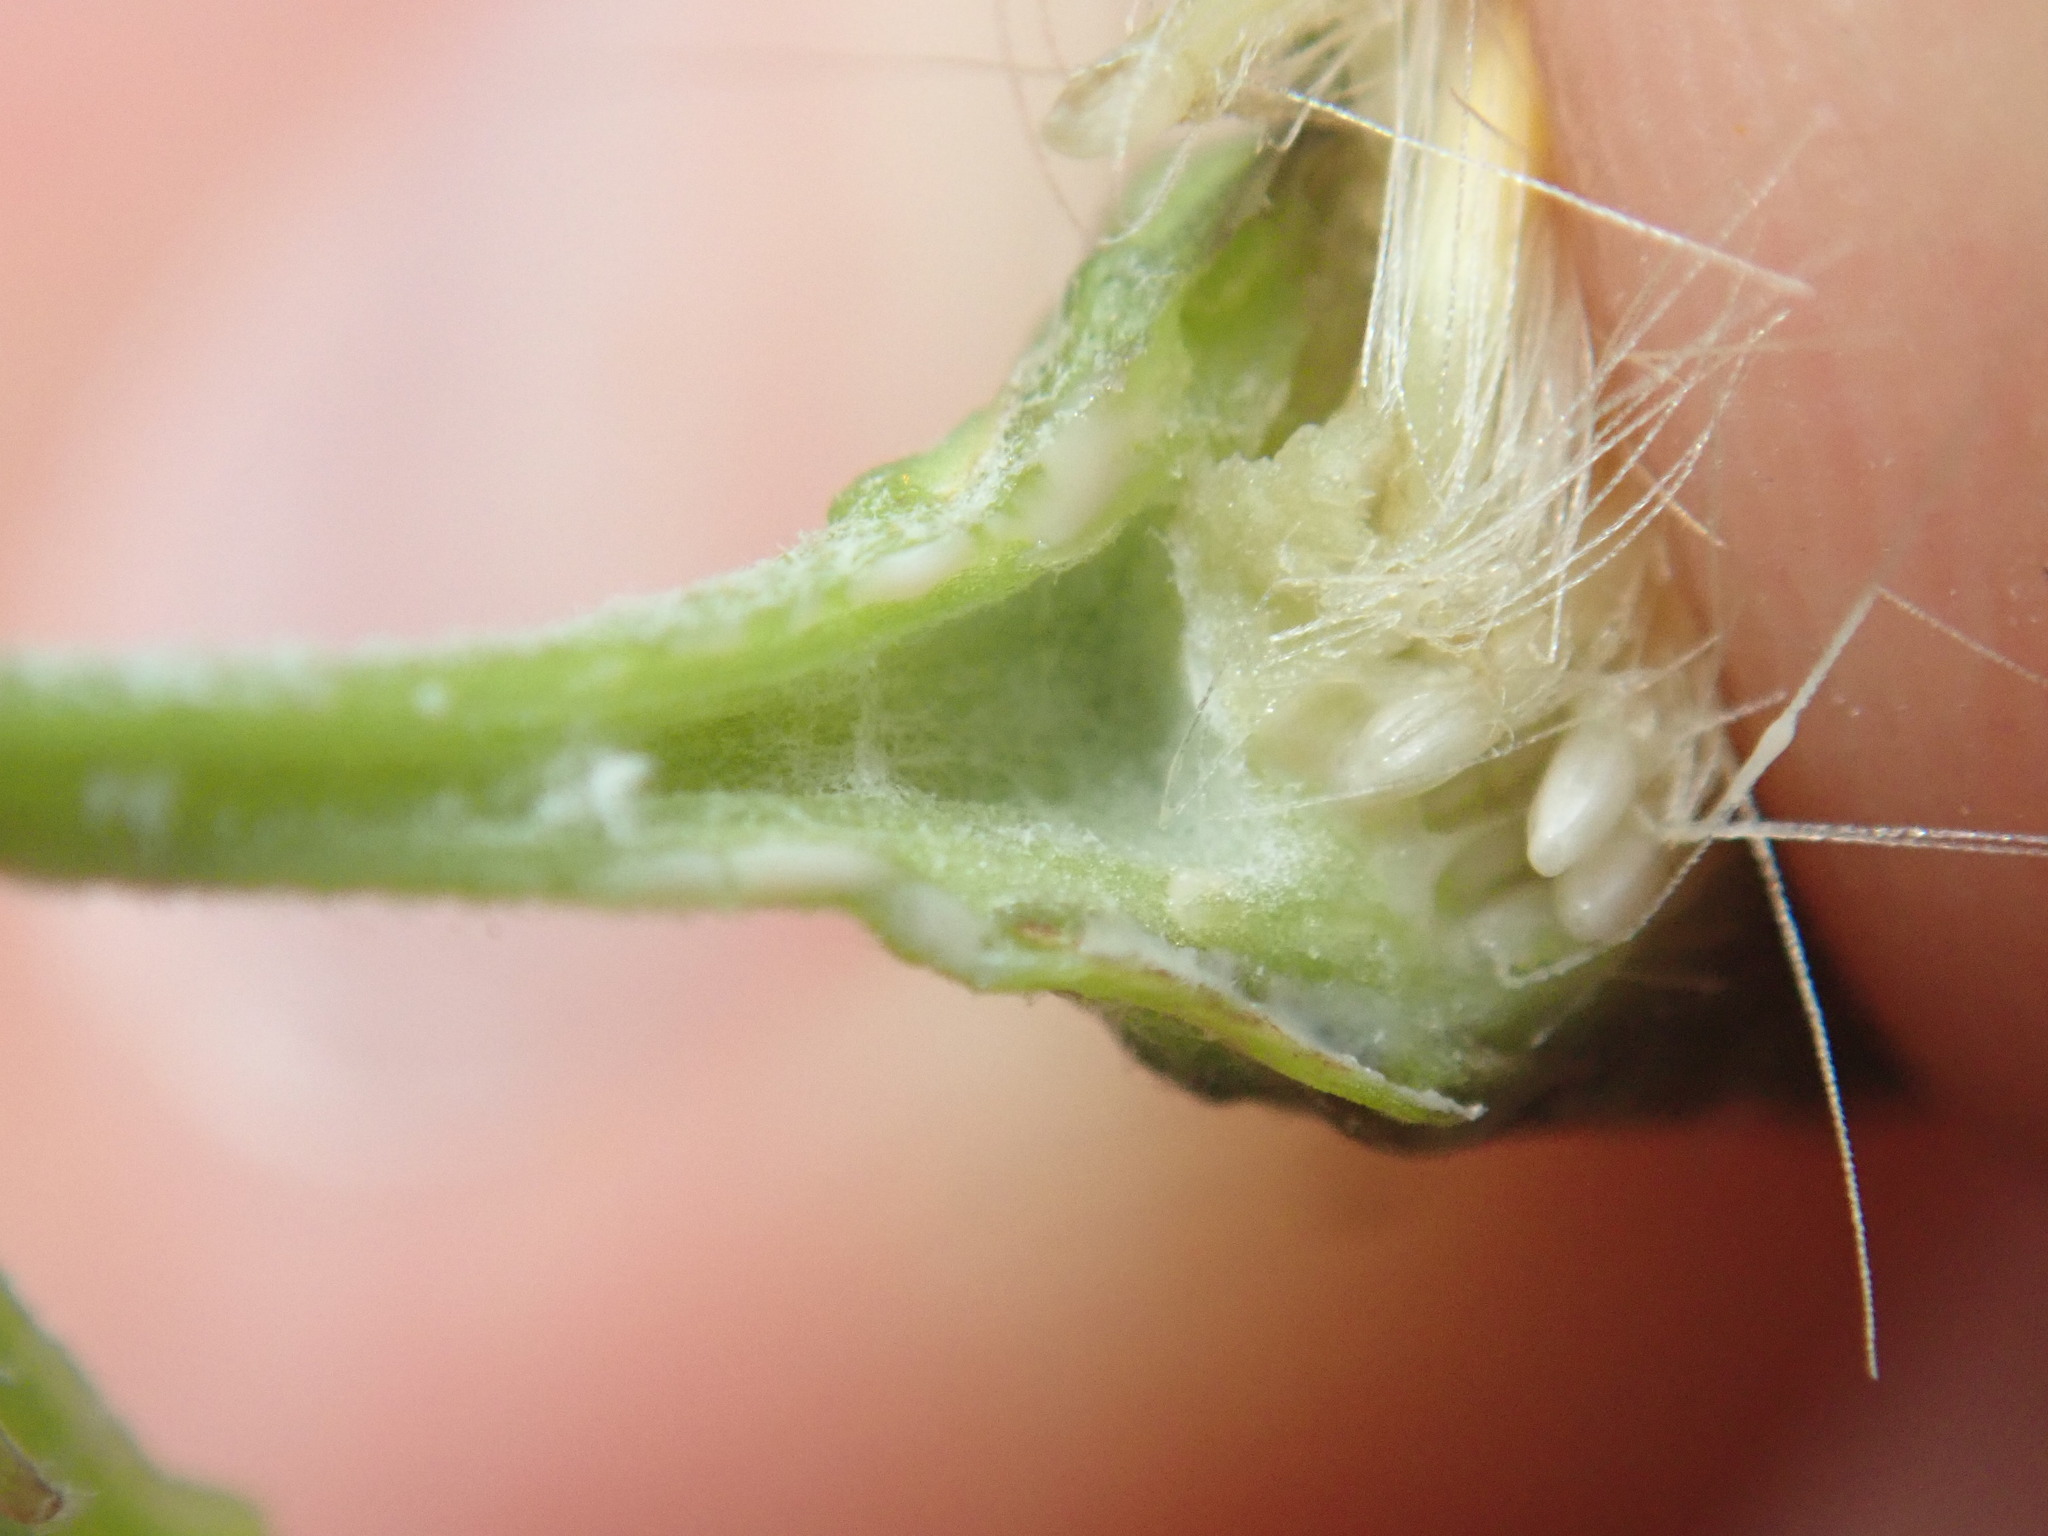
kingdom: Plantae
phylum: Tracheophyta
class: Magnoliopsida
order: Asterales
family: Asteraceae
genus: Hieracium
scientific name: Hieracium sabaudum
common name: New england hawkweed
